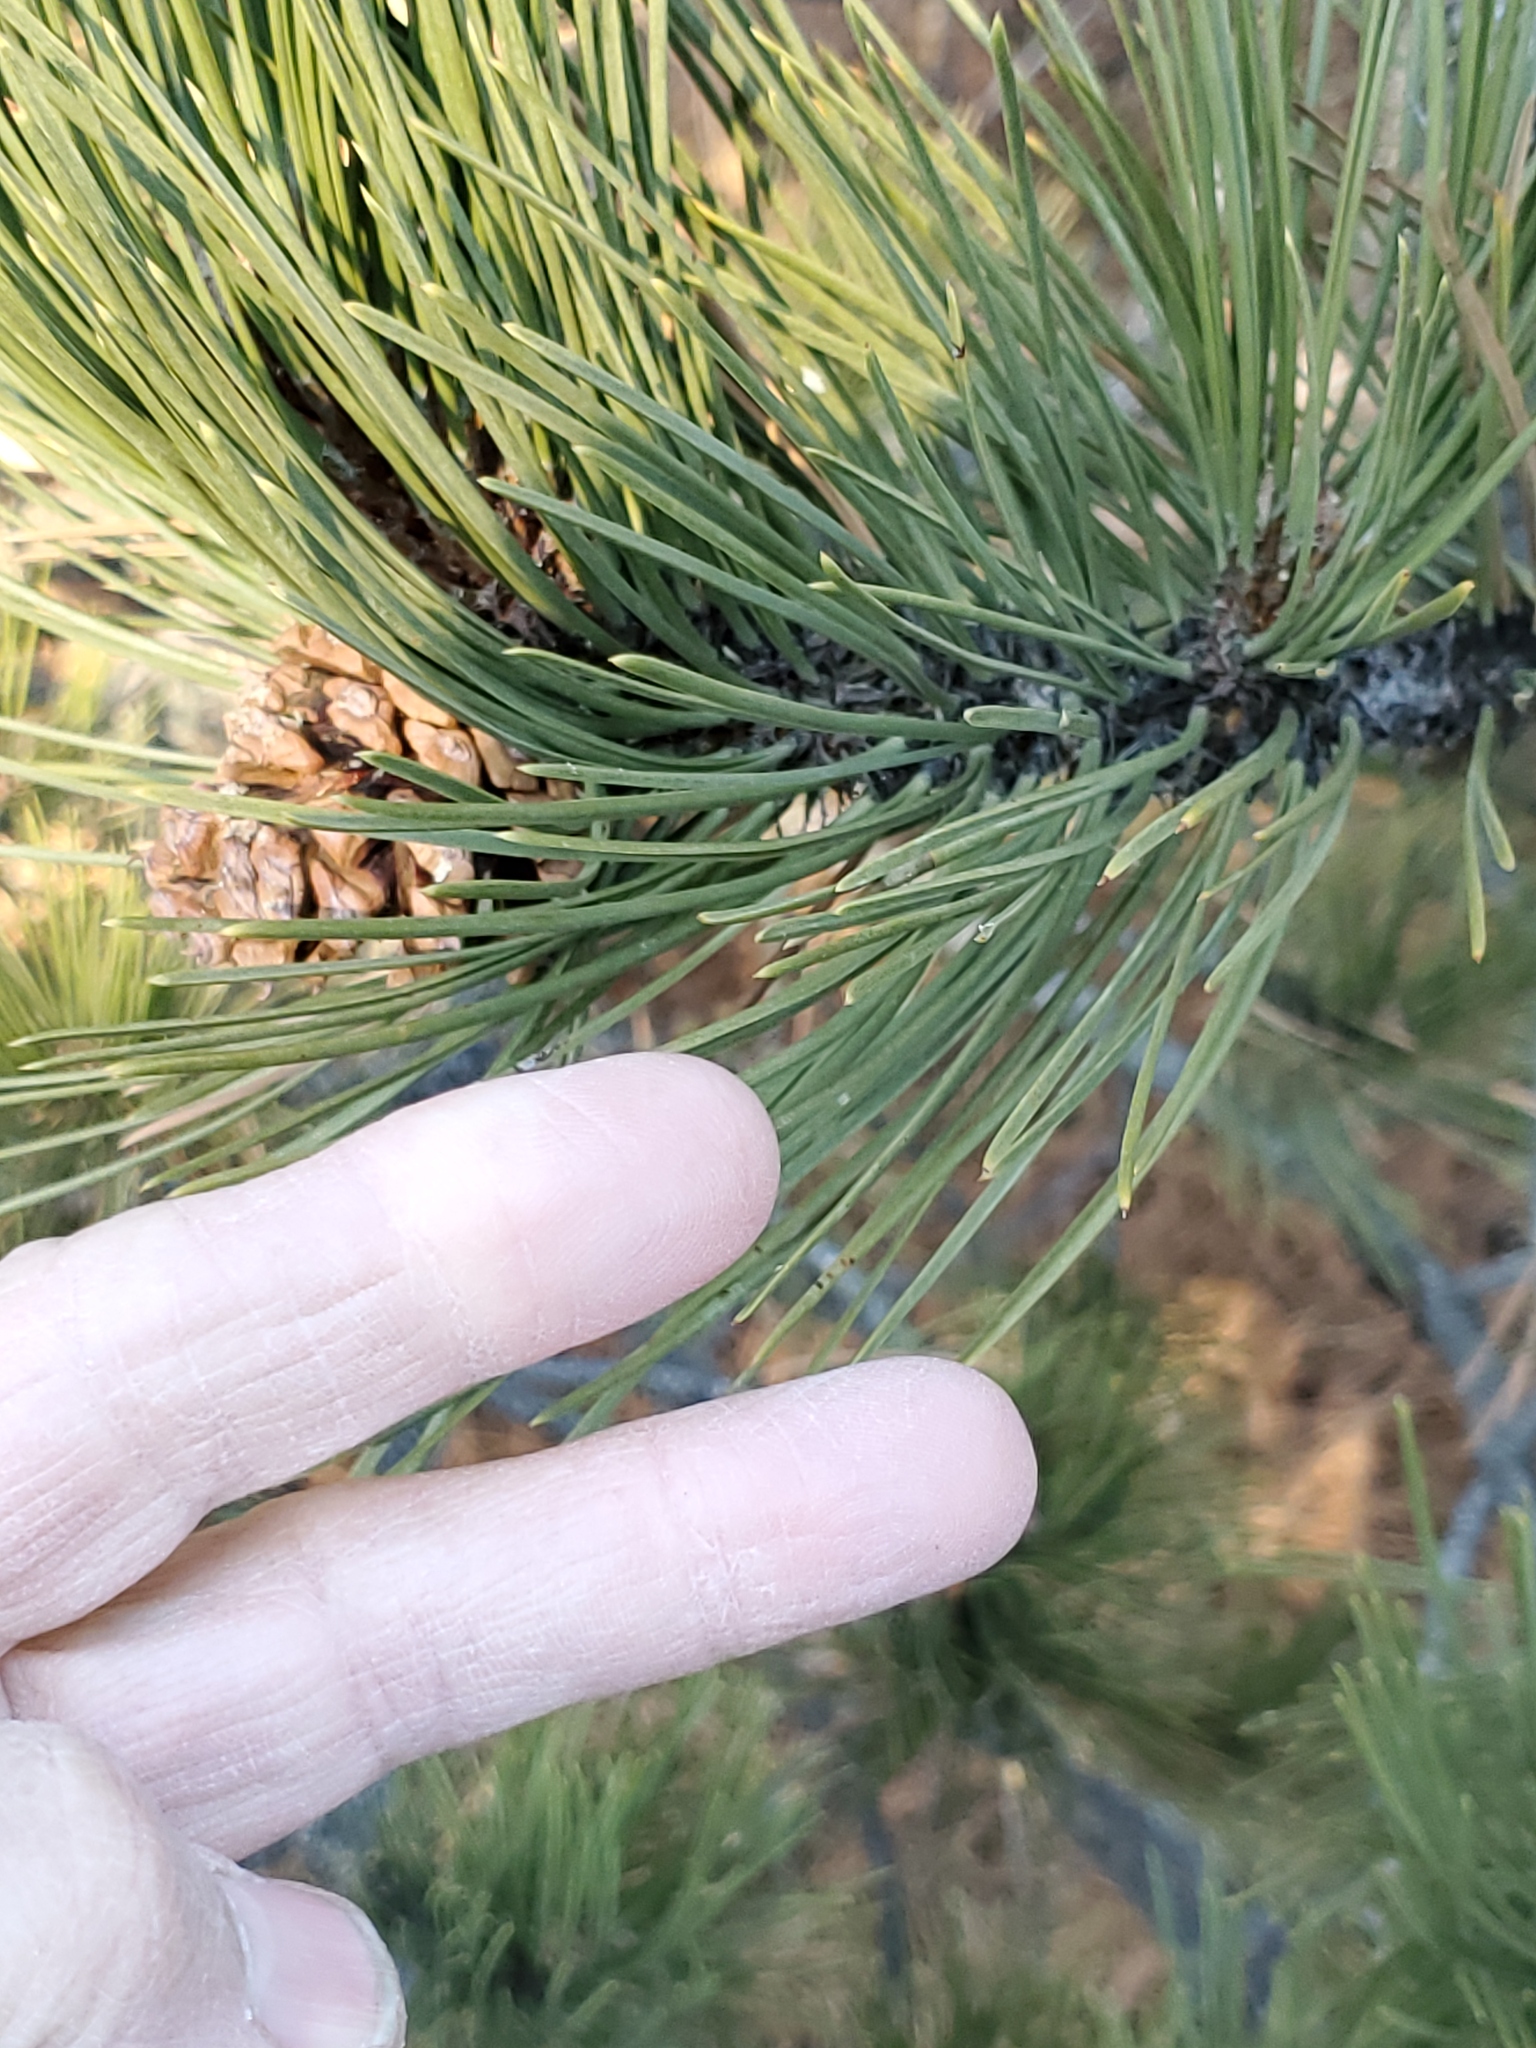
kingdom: Plantae
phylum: Tracheophyta
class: Pinopsida
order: Pinales
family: Pinaceae
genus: Pinus
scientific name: Pinus ponderosa
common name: Western yellow-pine
